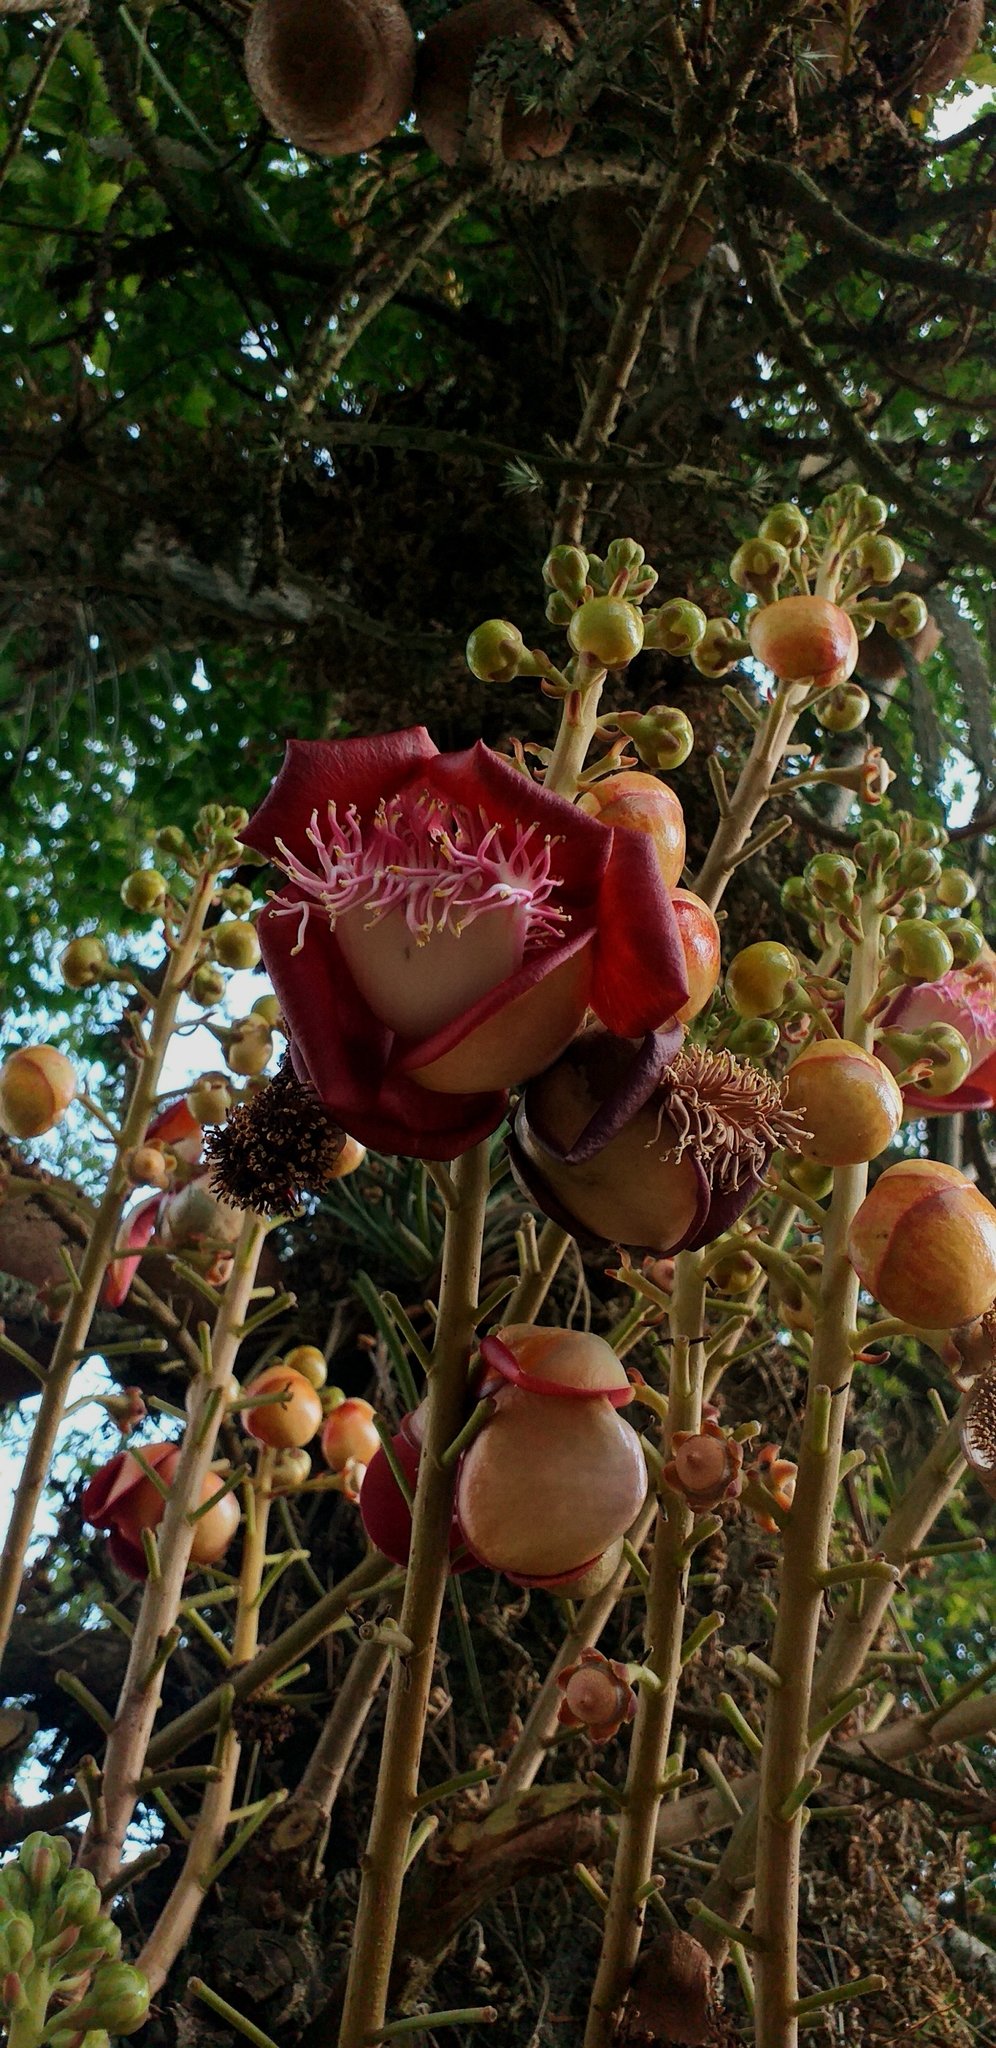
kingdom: Plantae
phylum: Tracheophyta
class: Magnoliopsida
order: Ericales
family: Lecythidaceae
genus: Couroupita
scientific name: Couroupita guianensis
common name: Cannonball tree
